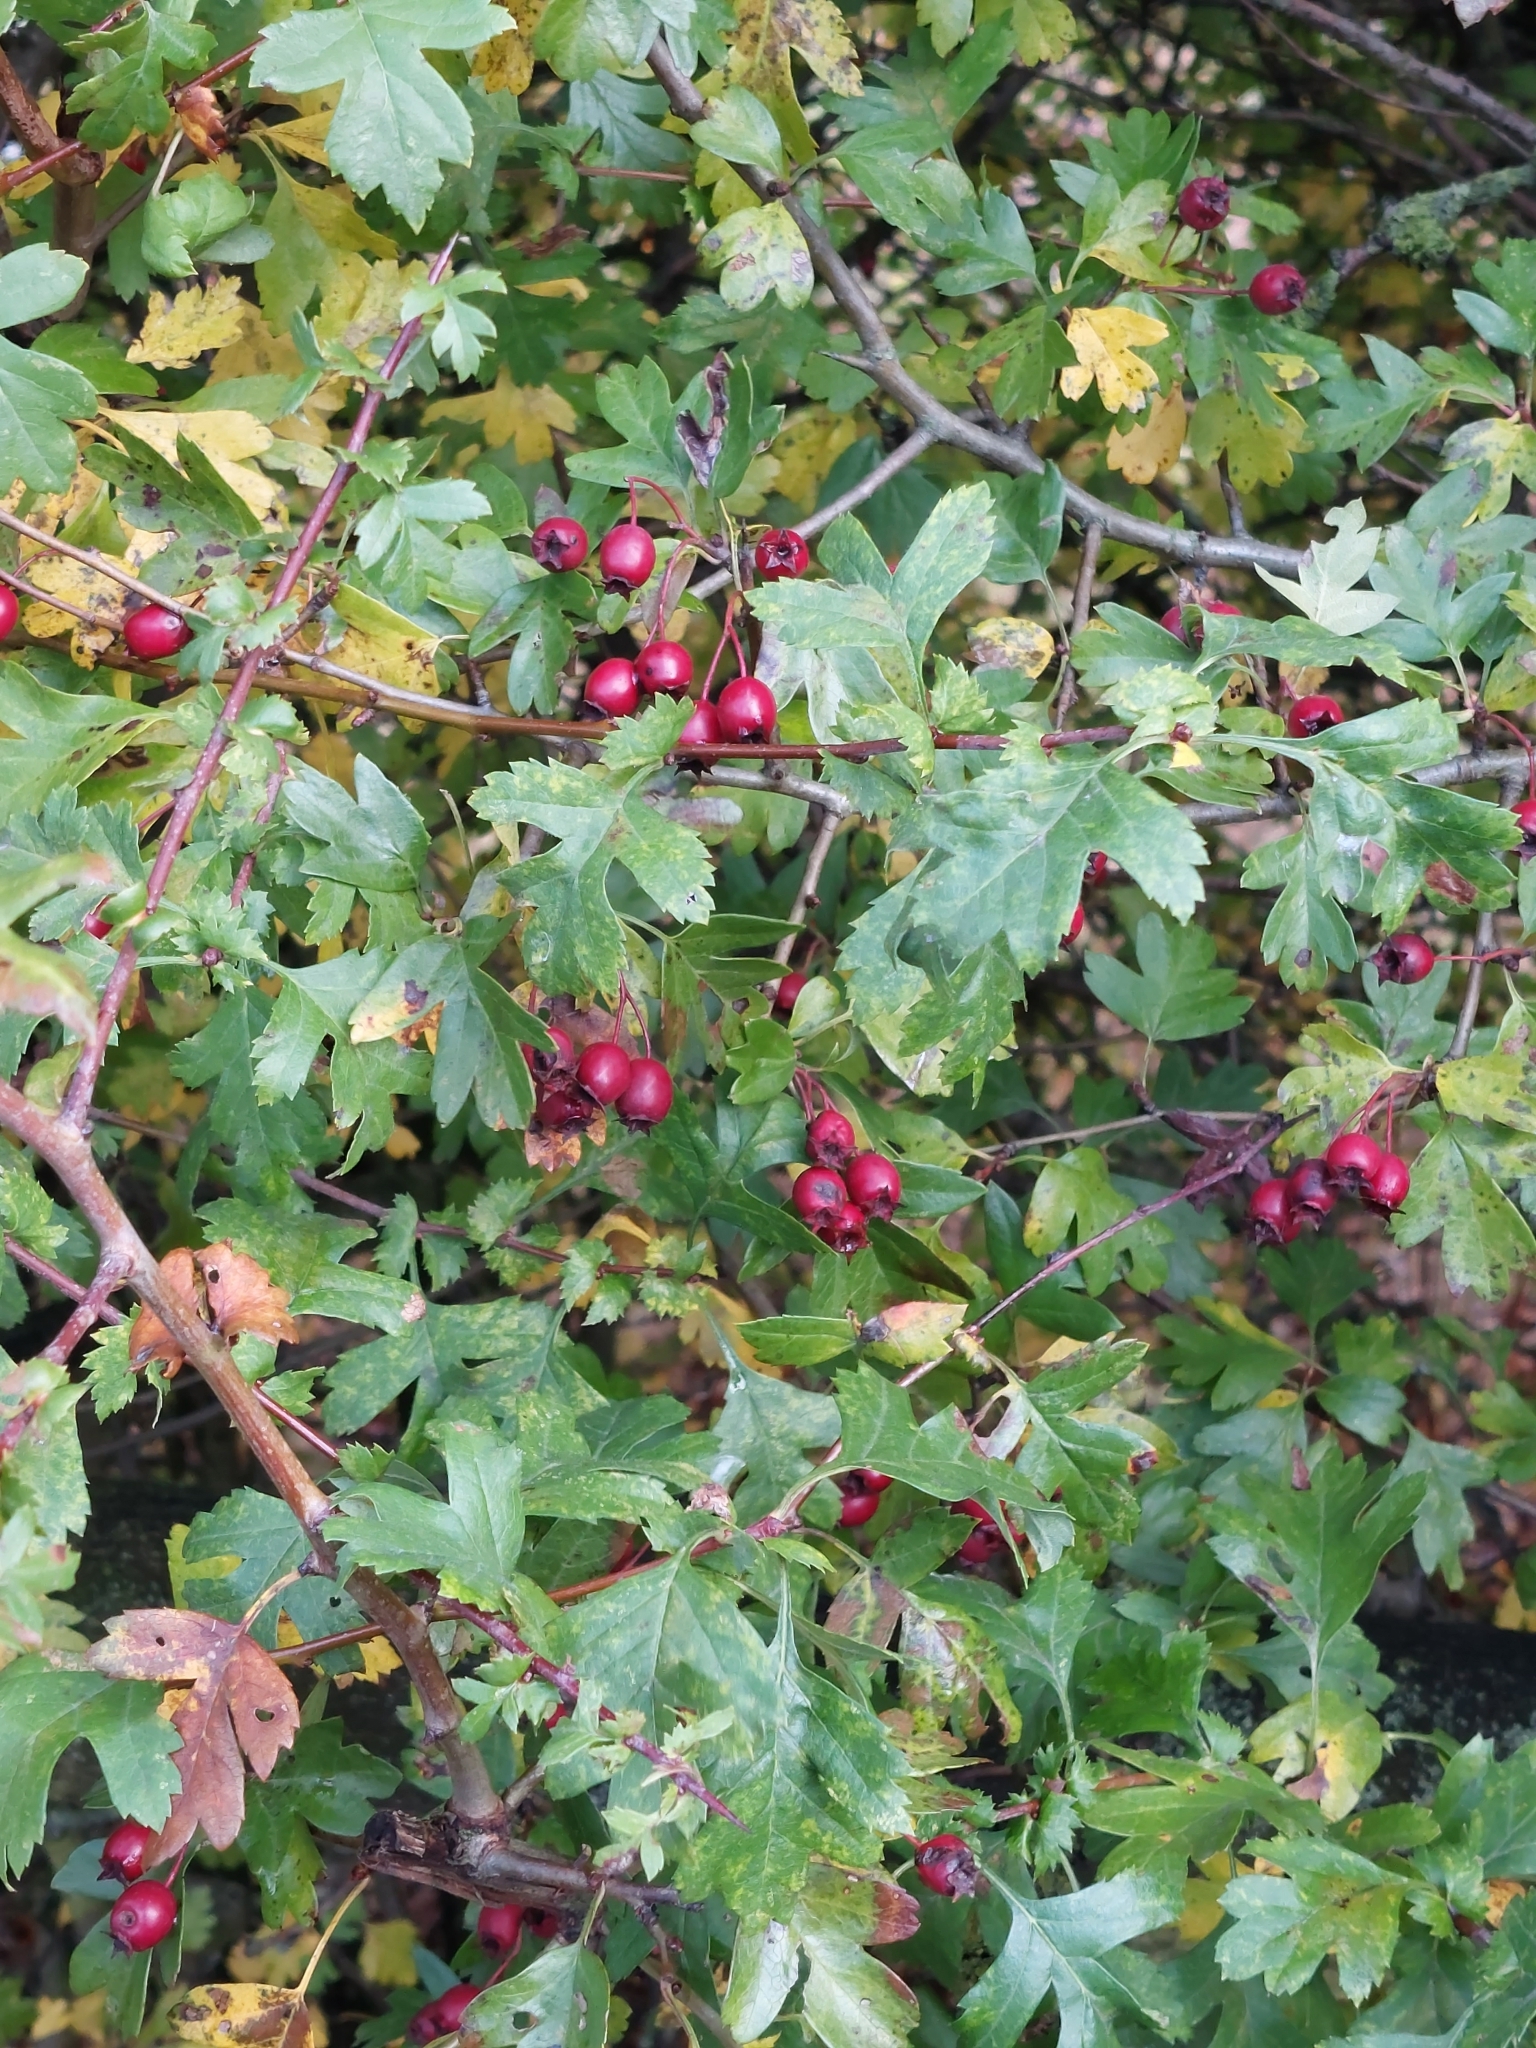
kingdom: Plantae
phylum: Tracheophyta
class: Magnoliopsida
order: Rosales
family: Rosaceae
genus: Crataegus
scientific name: Crataegus monogyna
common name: Hawthorn
